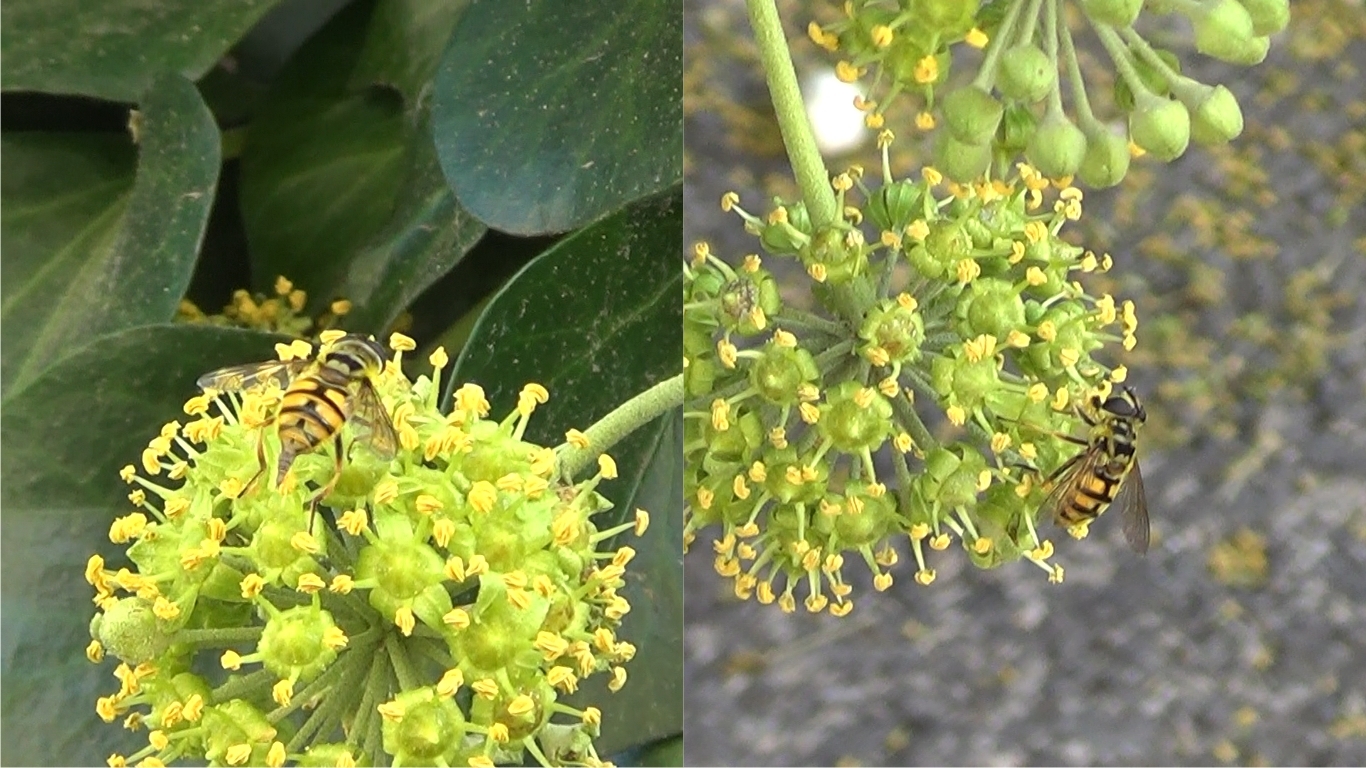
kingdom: Animalia
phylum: Arthropoda
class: Insecta
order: Diptera
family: Syrphidae
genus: Myathropa
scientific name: Myathropa florea
